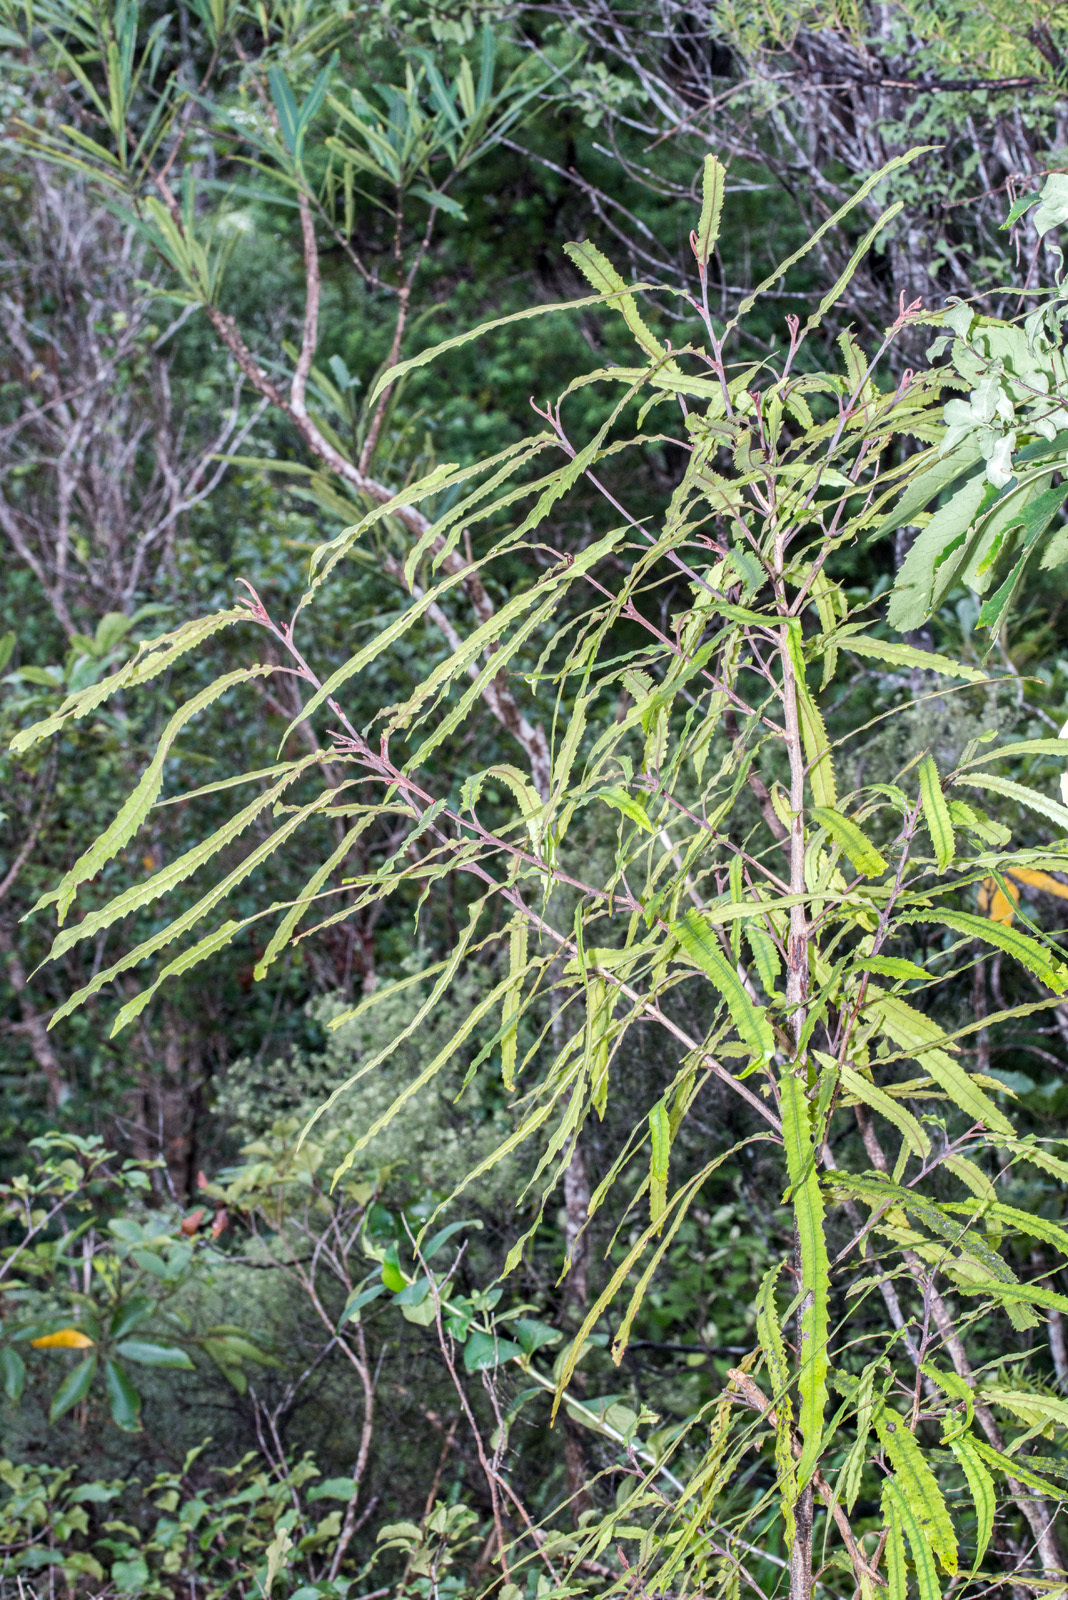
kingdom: Plantae
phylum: Tracheophyta
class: Magnoliopsida
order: Proteales
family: Proteaceae
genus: Knightia
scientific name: Knightia excelsa
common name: New zealand-honeysuckle
